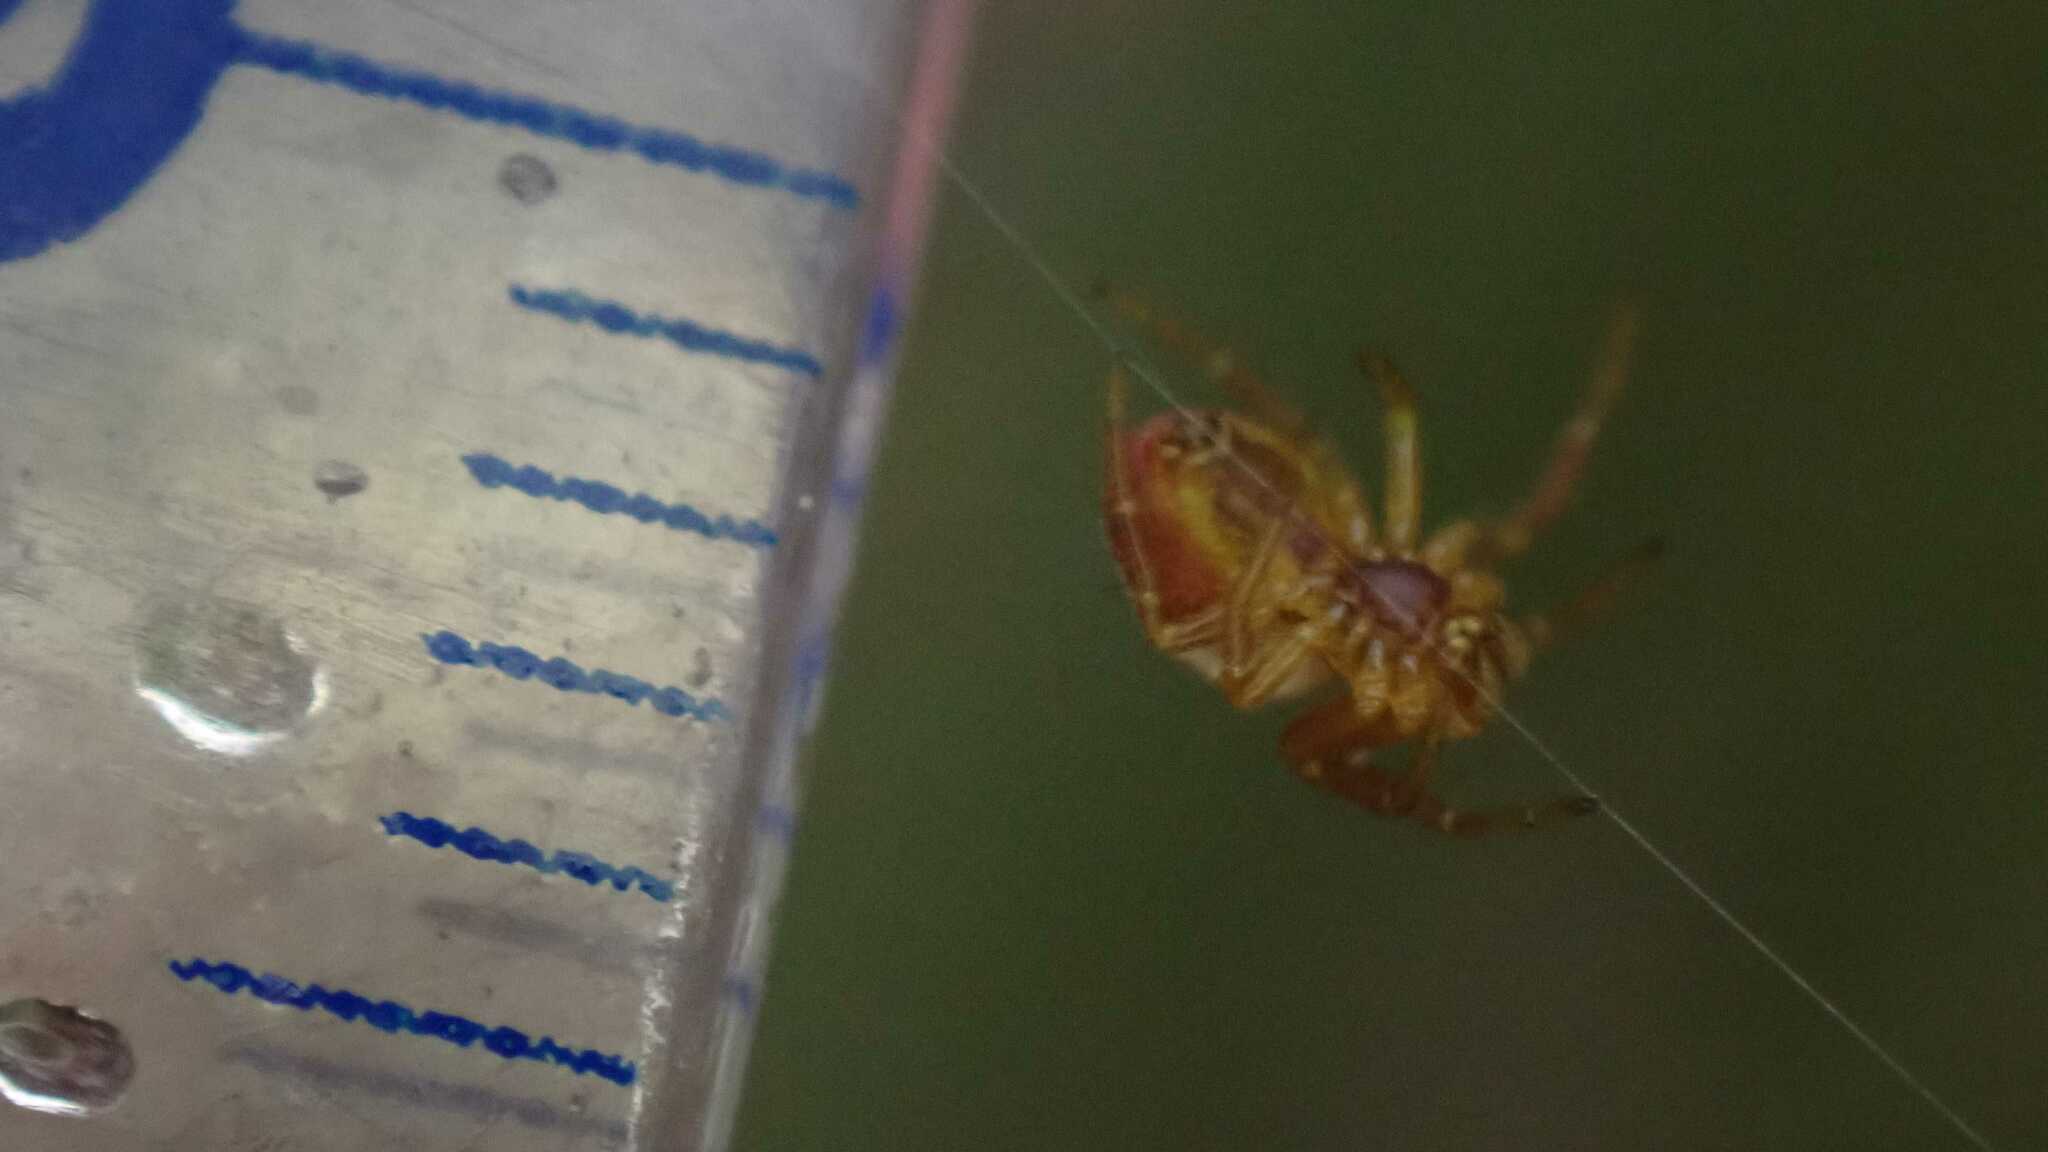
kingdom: Animalia
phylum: Arthropoda
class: Arachnida
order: Araneae
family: Araneidae
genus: Araniella
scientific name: Araniella
